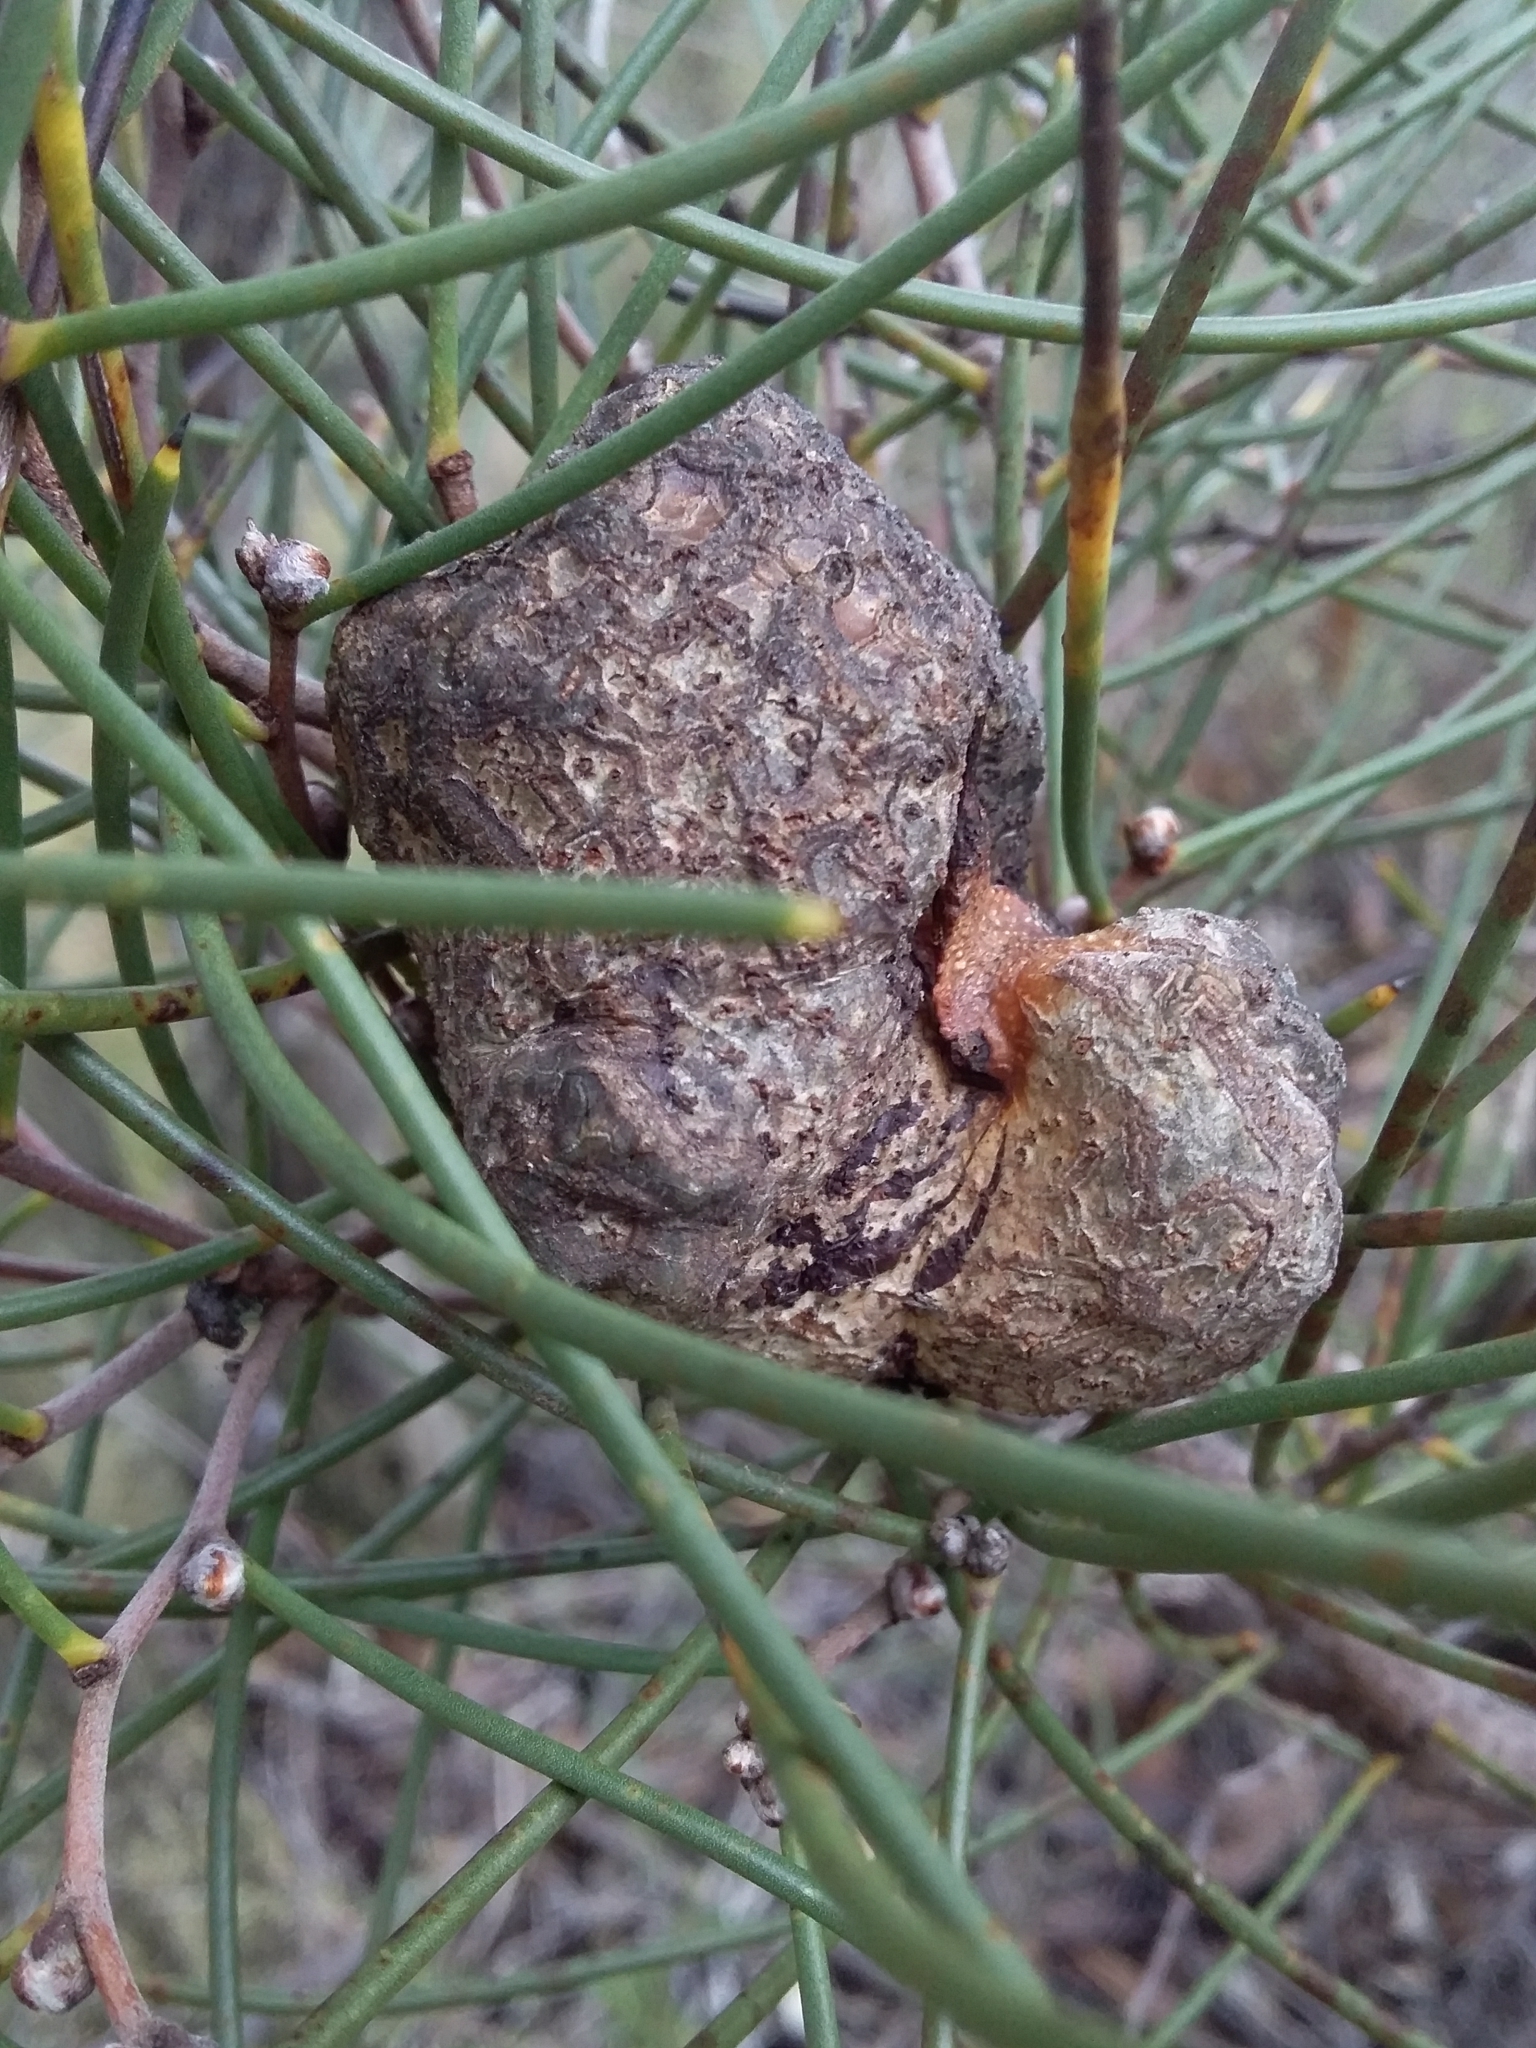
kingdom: Plantae
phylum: Tracheophyta
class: Magnoliopsida
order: Proteales
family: Proteaceae
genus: Hakea
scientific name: Hakea rostrata
